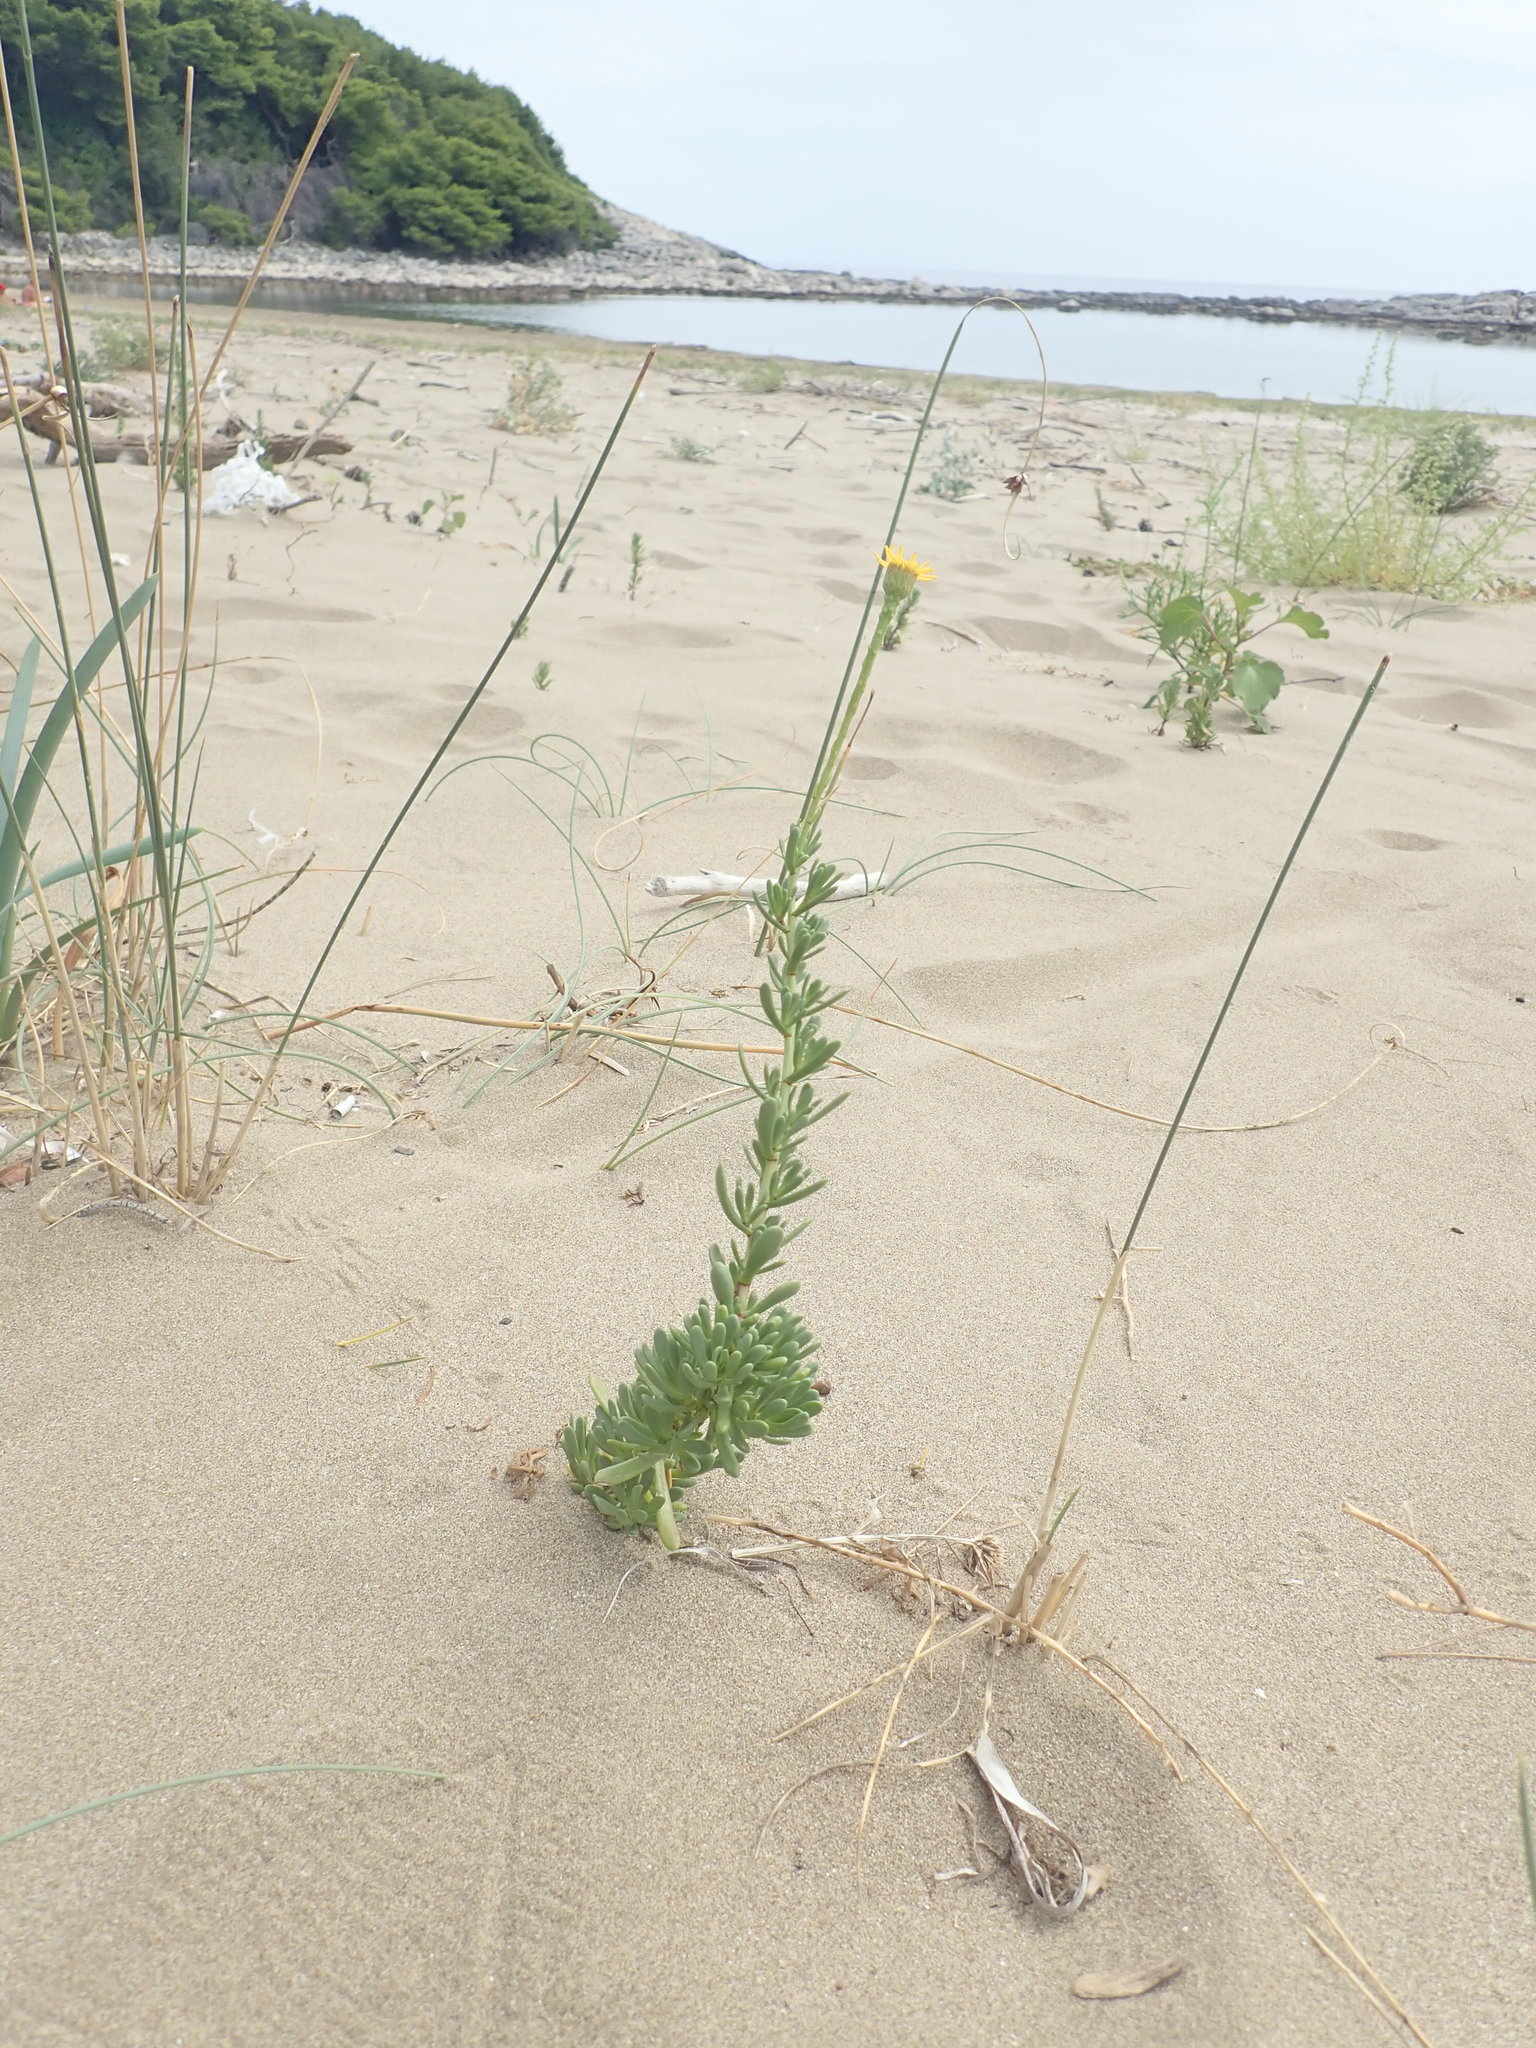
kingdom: Plantae
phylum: Tracheophyta
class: Magnoliopsida
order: Asterales
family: Asteraceae
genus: Limbarda
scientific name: Limbarda crithmoides
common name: Golden samphire
